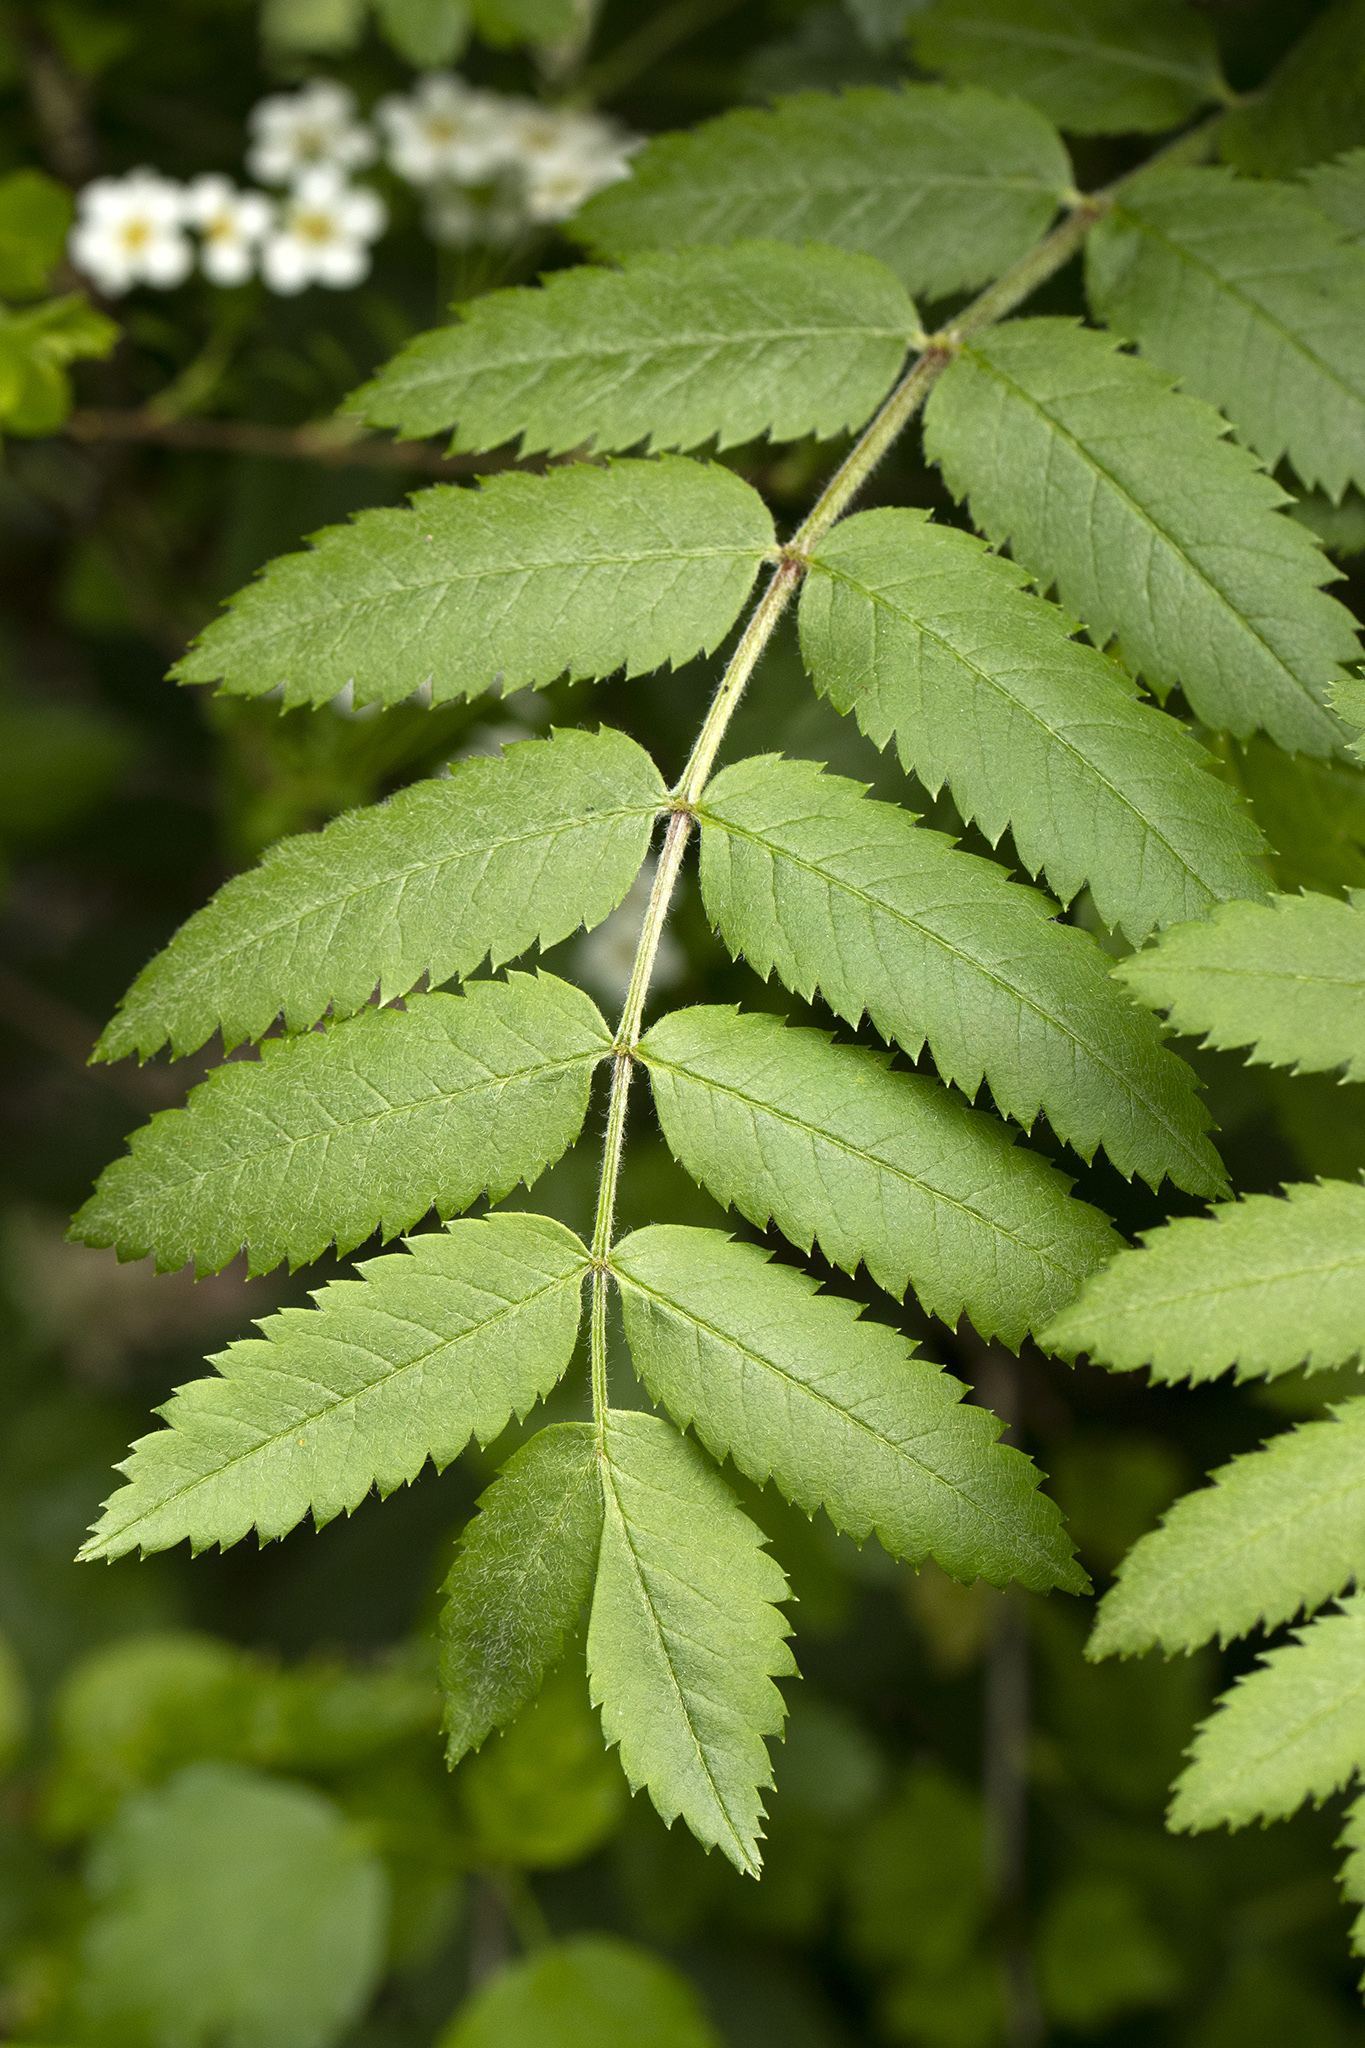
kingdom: Plantae
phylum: Tracheophyta
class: Magnoliopsida
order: Rosales
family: Rosaceae
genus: Sorbus
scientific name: Sorbus aucuparia
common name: Rowan
